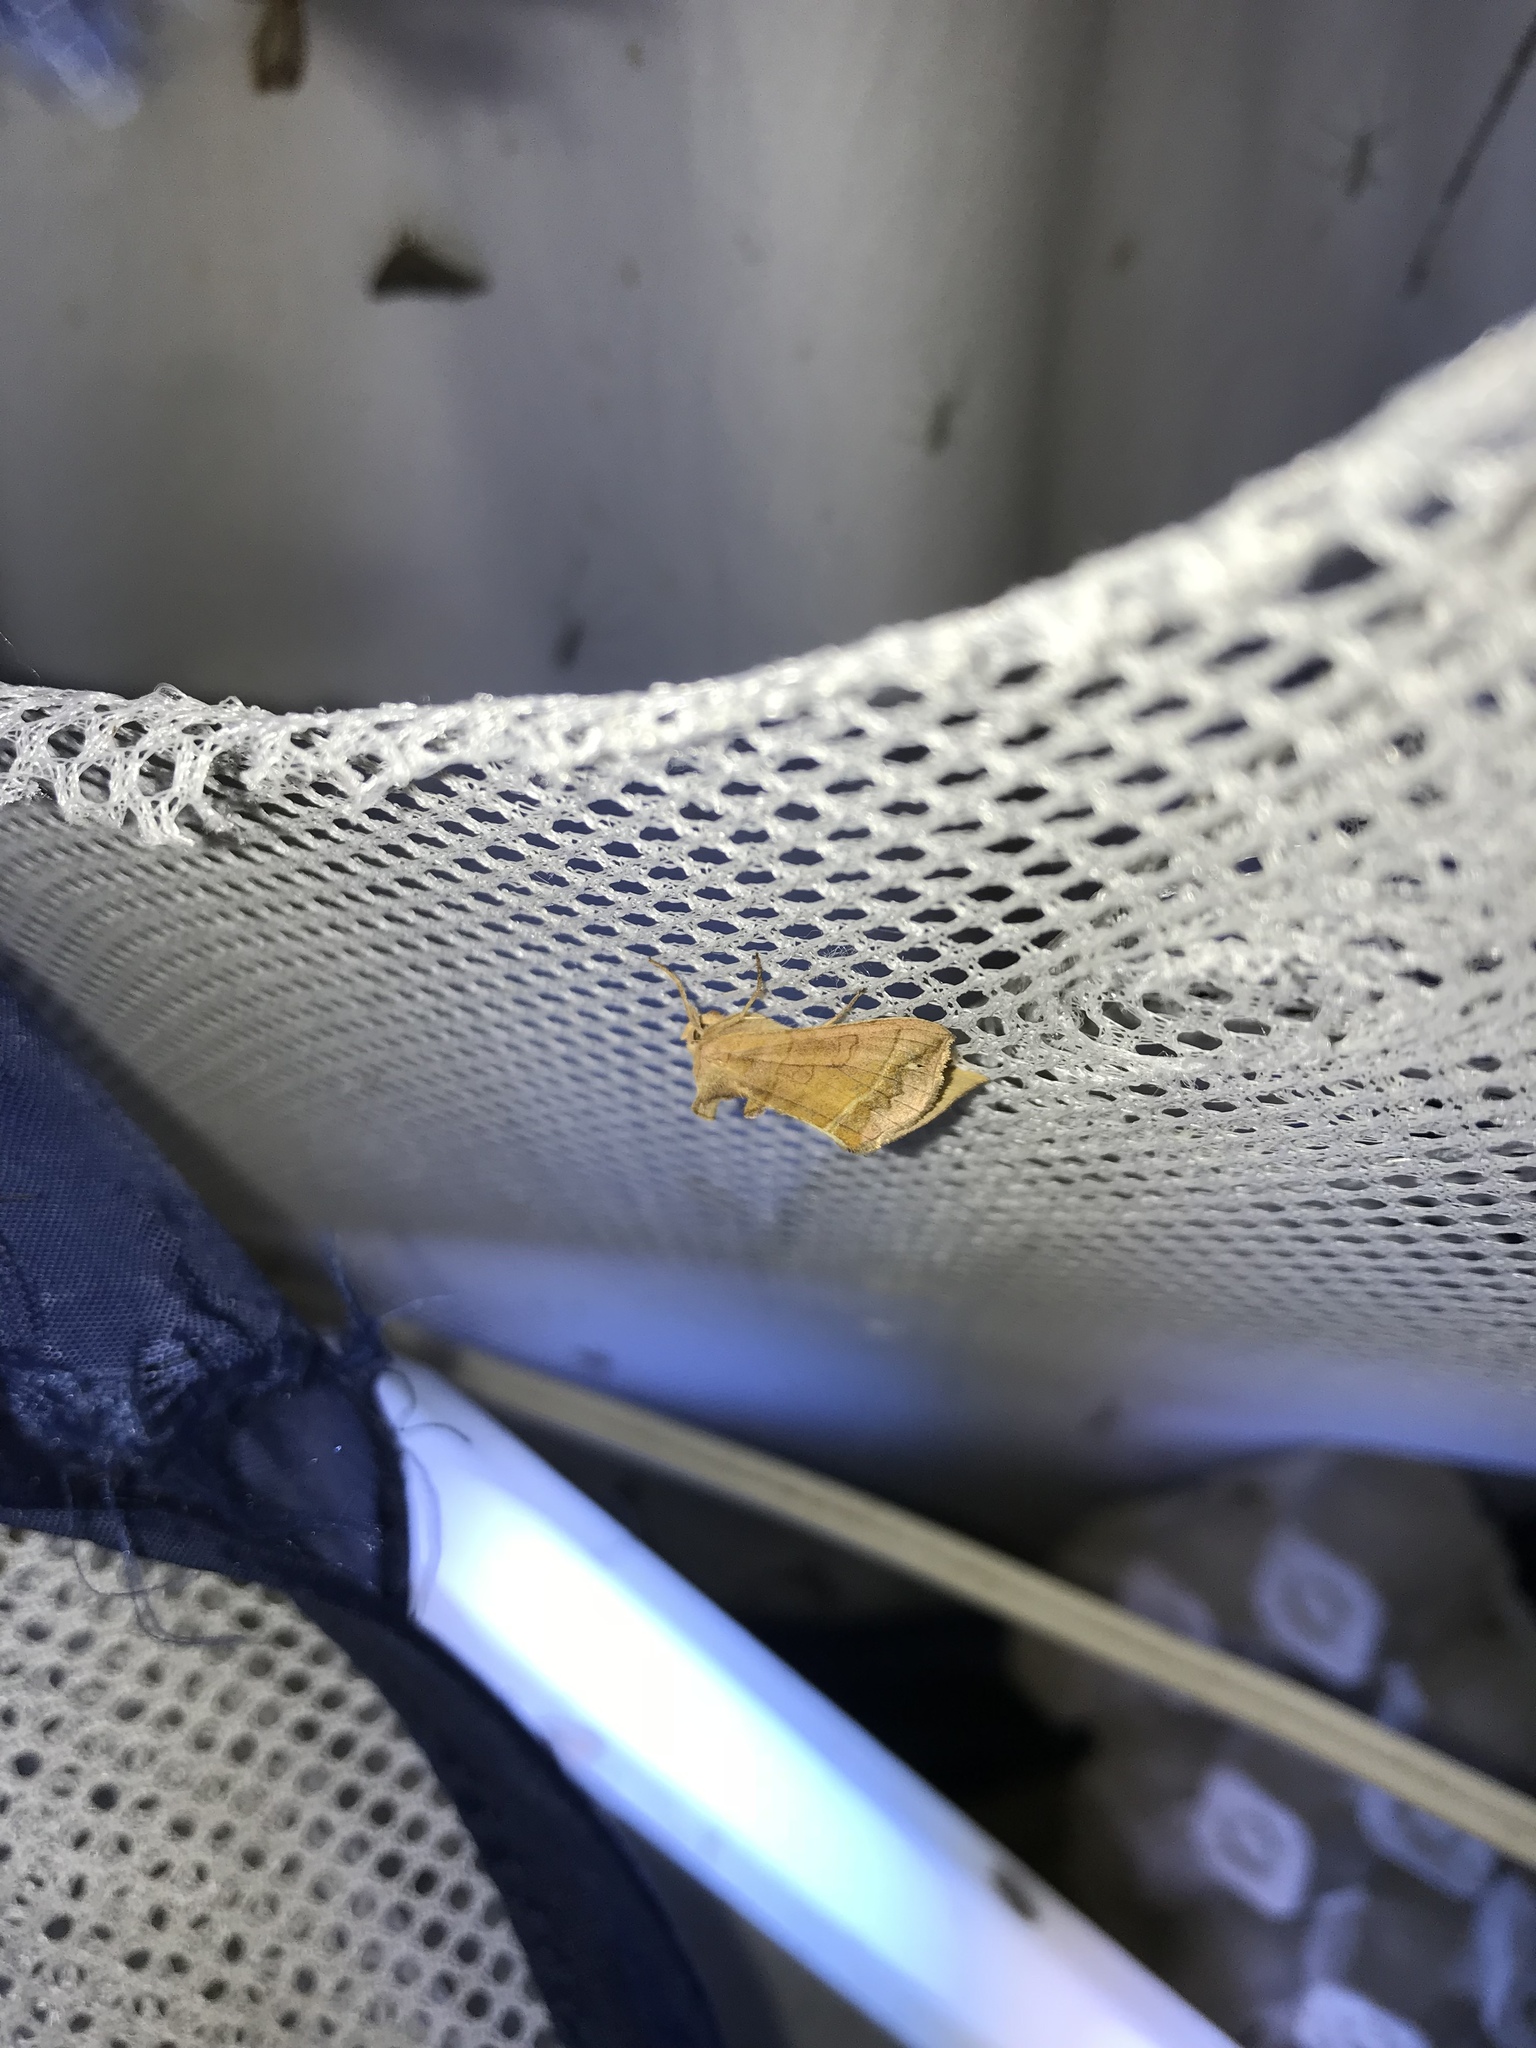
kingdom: Animalia
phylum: Arthropoda
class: Insecta
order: Lepidoptera
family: Noctuidae
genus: Diachrysia
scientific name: Diachrysia aereoides
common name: Dark-spotted looper moth
